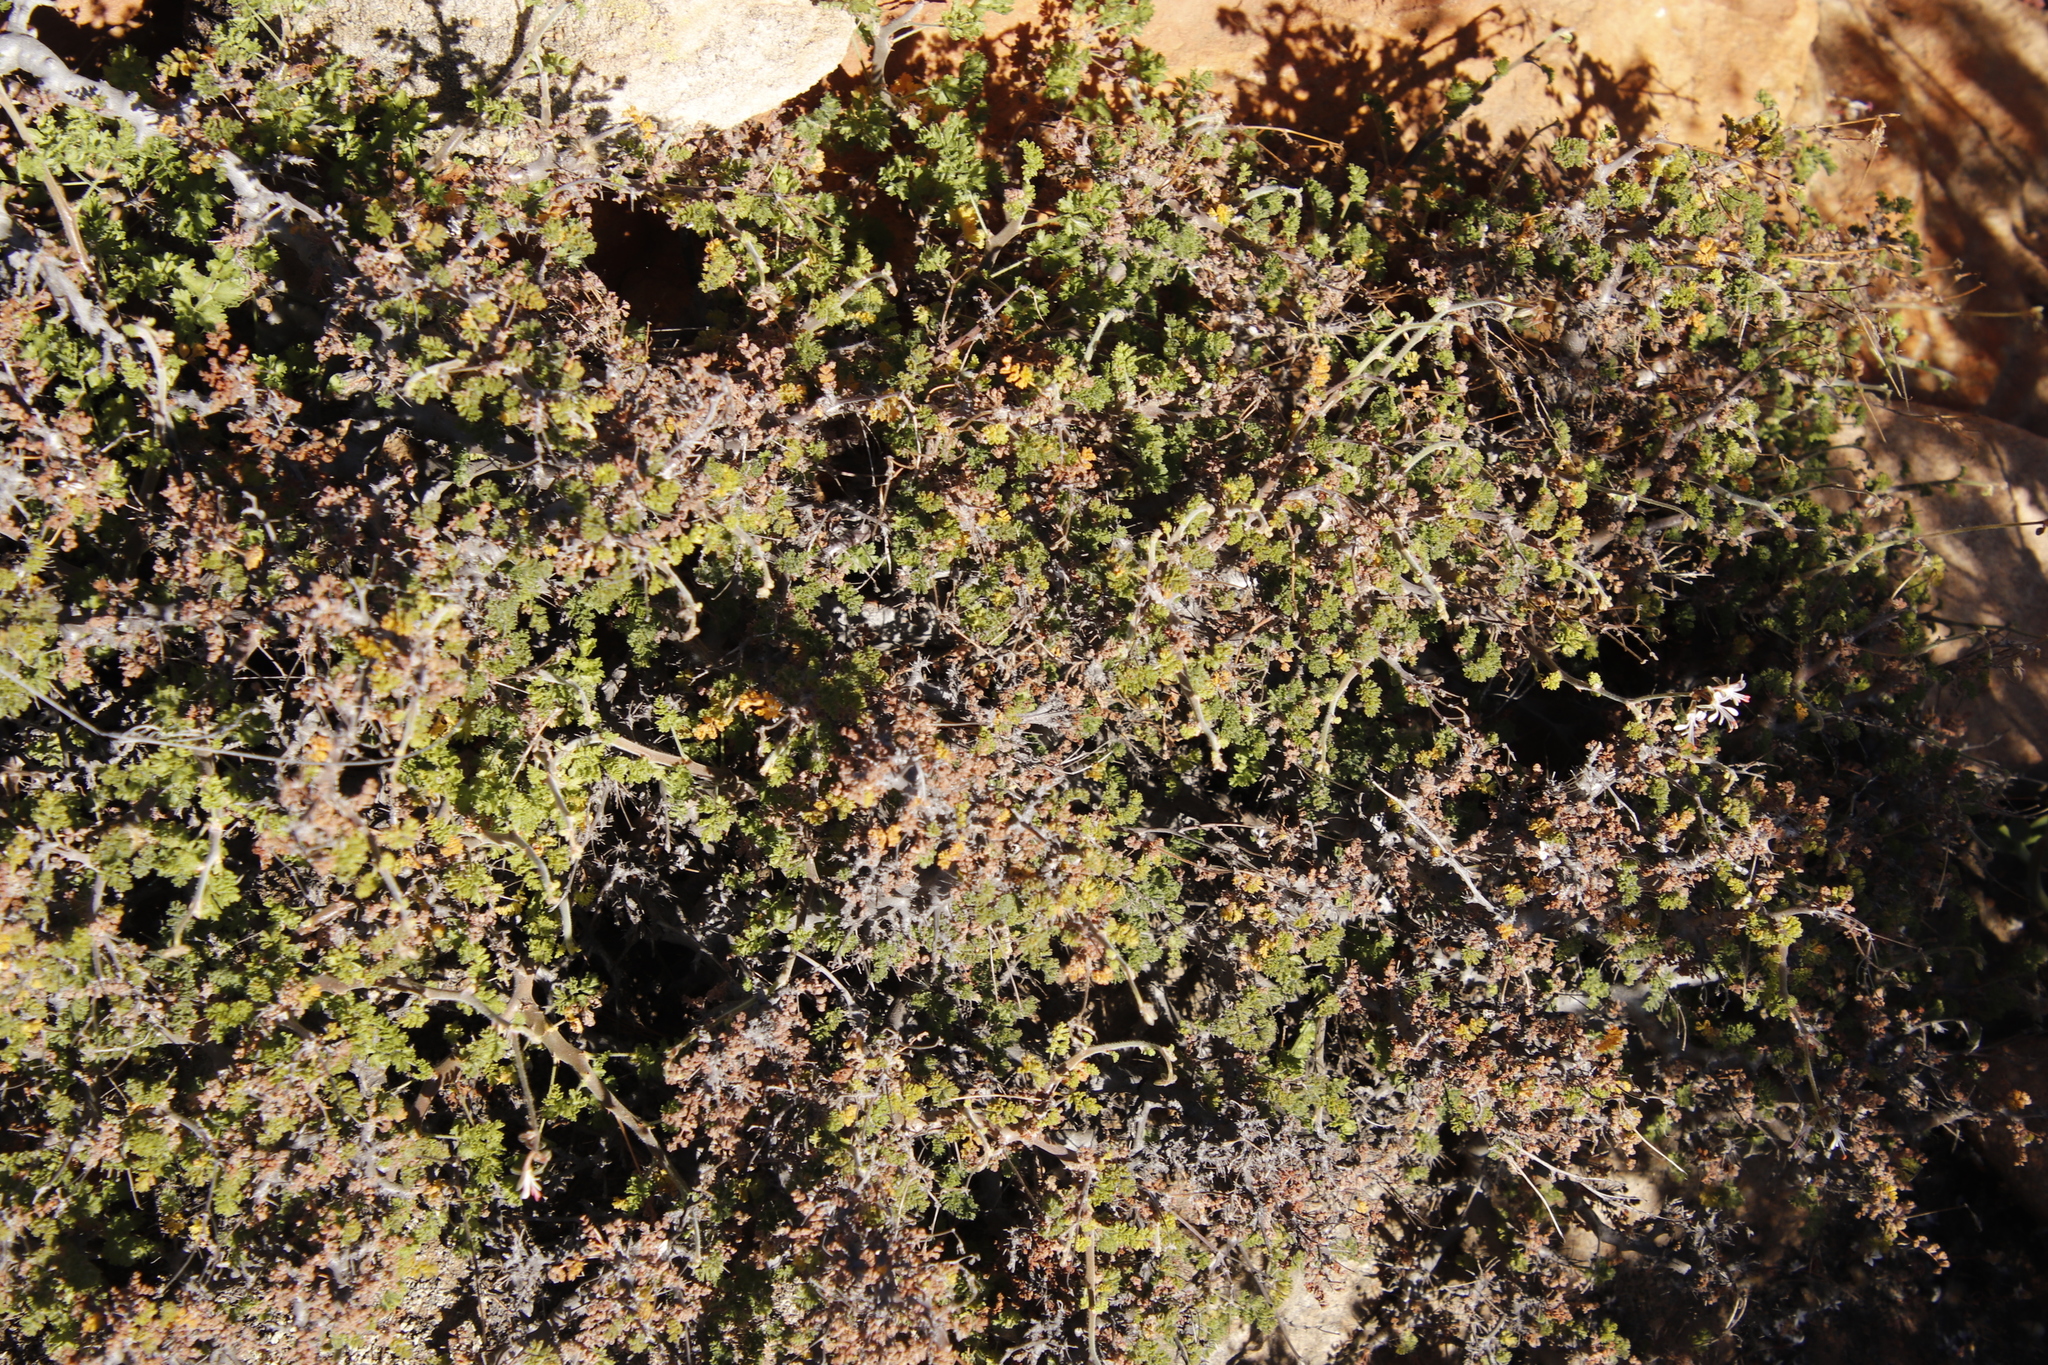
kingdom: Plantae
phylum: Tracheophyta
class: Magnoliopsida
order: Geraniales
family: Geraniaceae
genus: Pelargonium
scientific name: Pelargonium alternans
